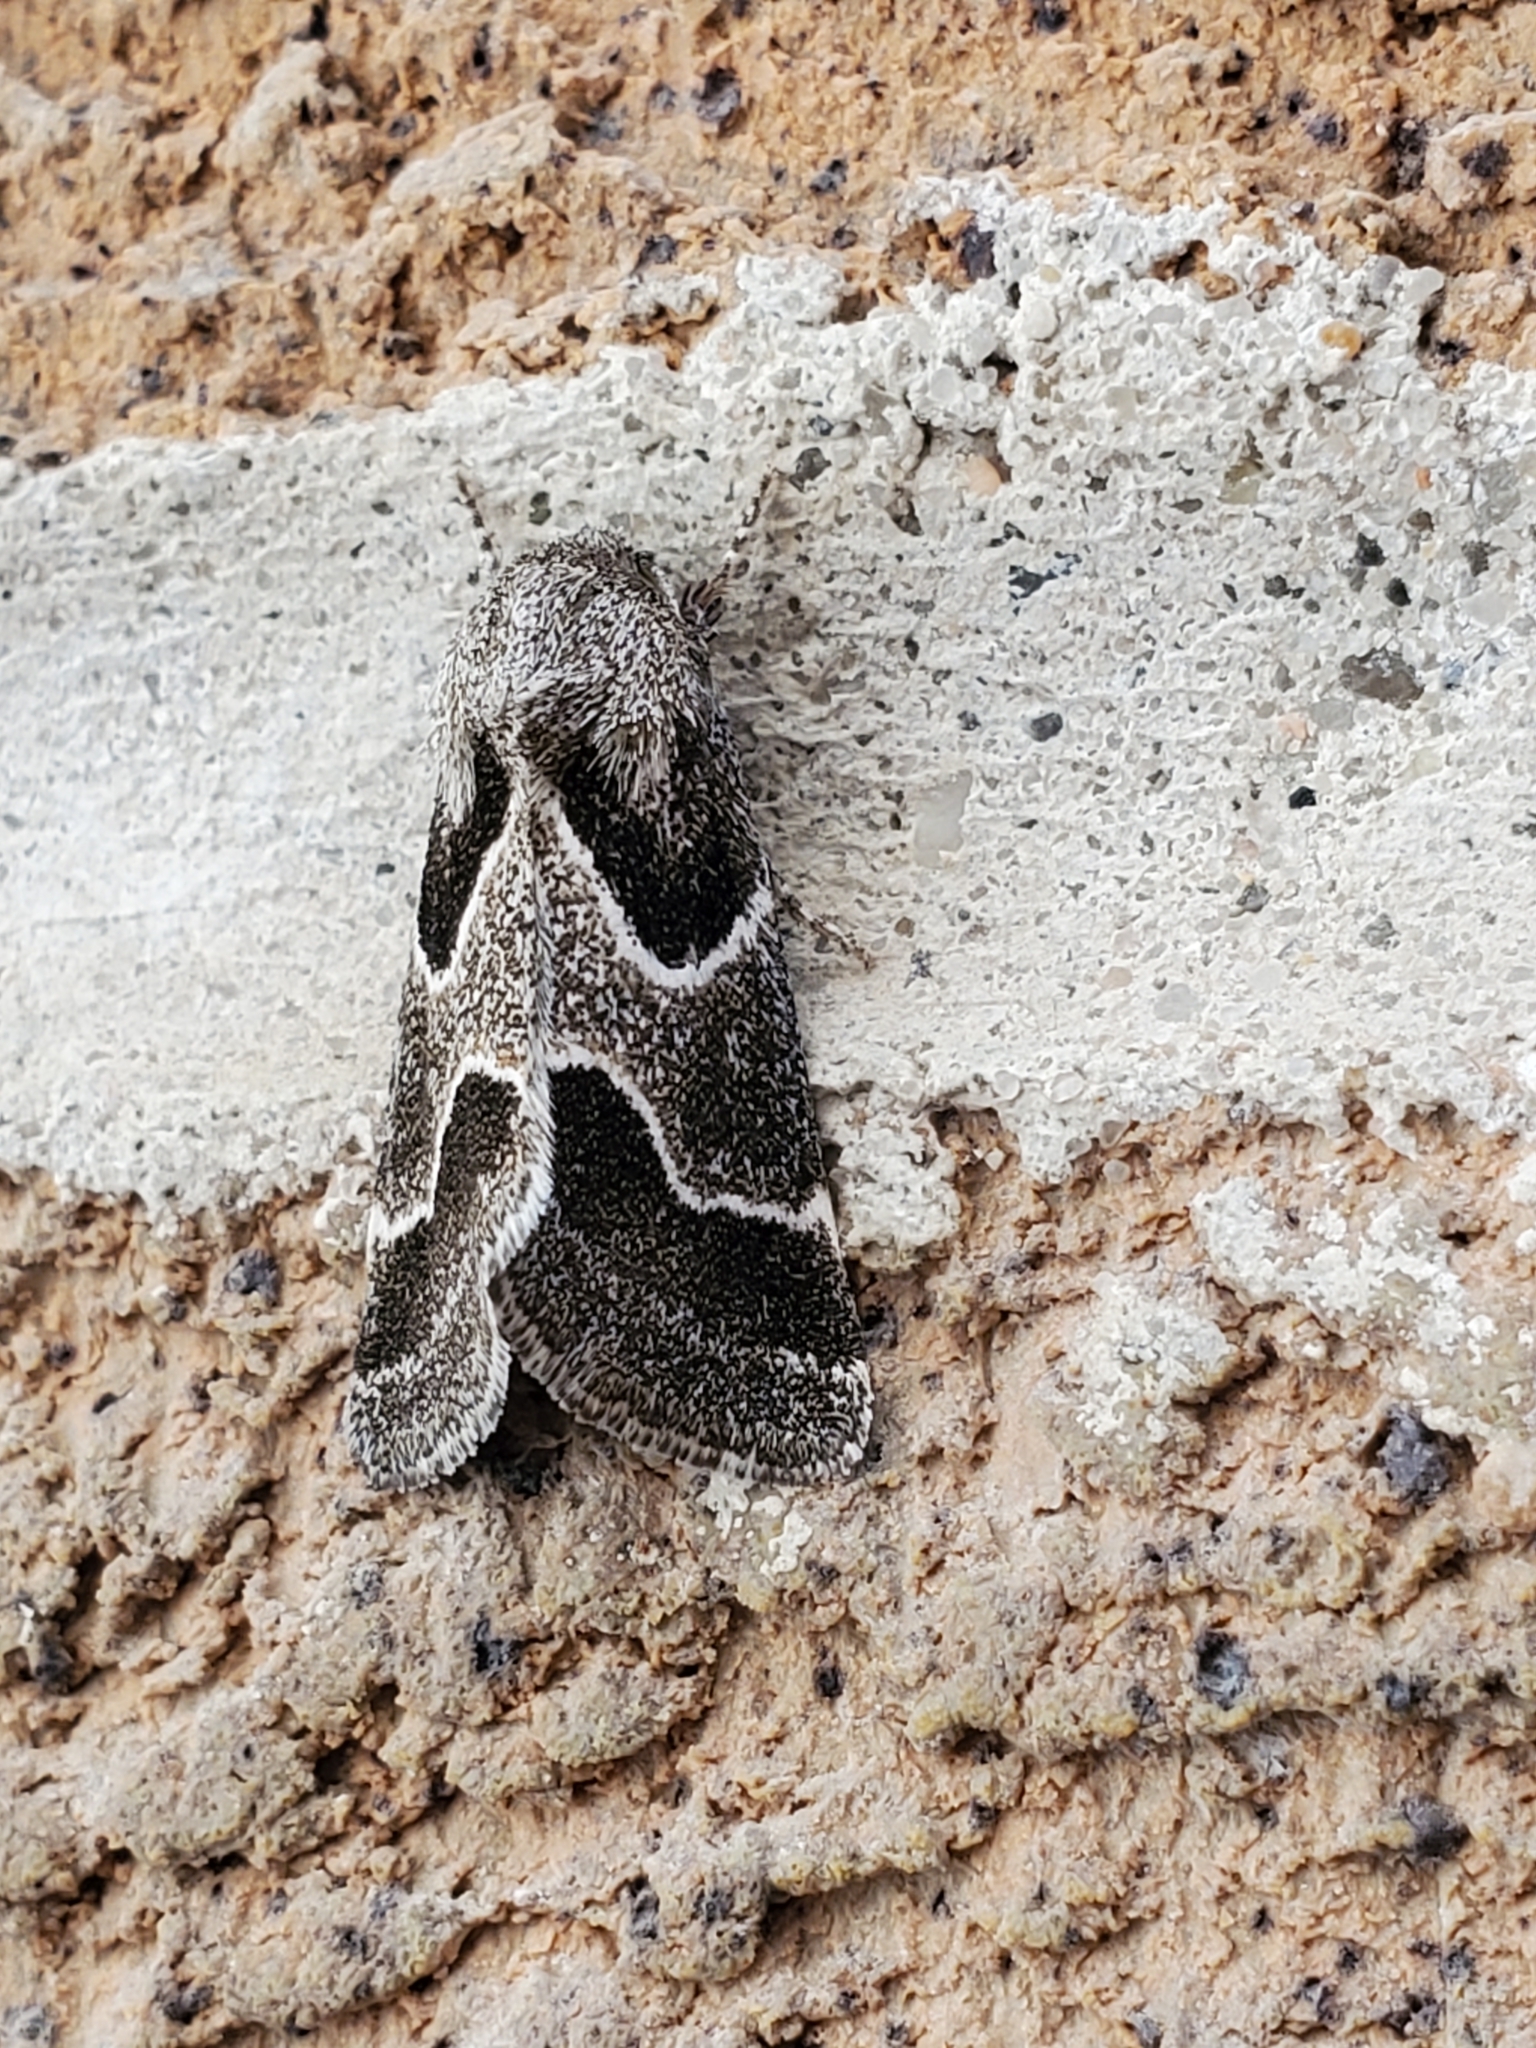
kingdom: Animalia
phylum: Arthropoda
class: Insecta
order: Lepidoptera
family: Noctuidae
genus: Schinia
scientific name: Schinia rivulosa
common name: Scarce meal-moth
